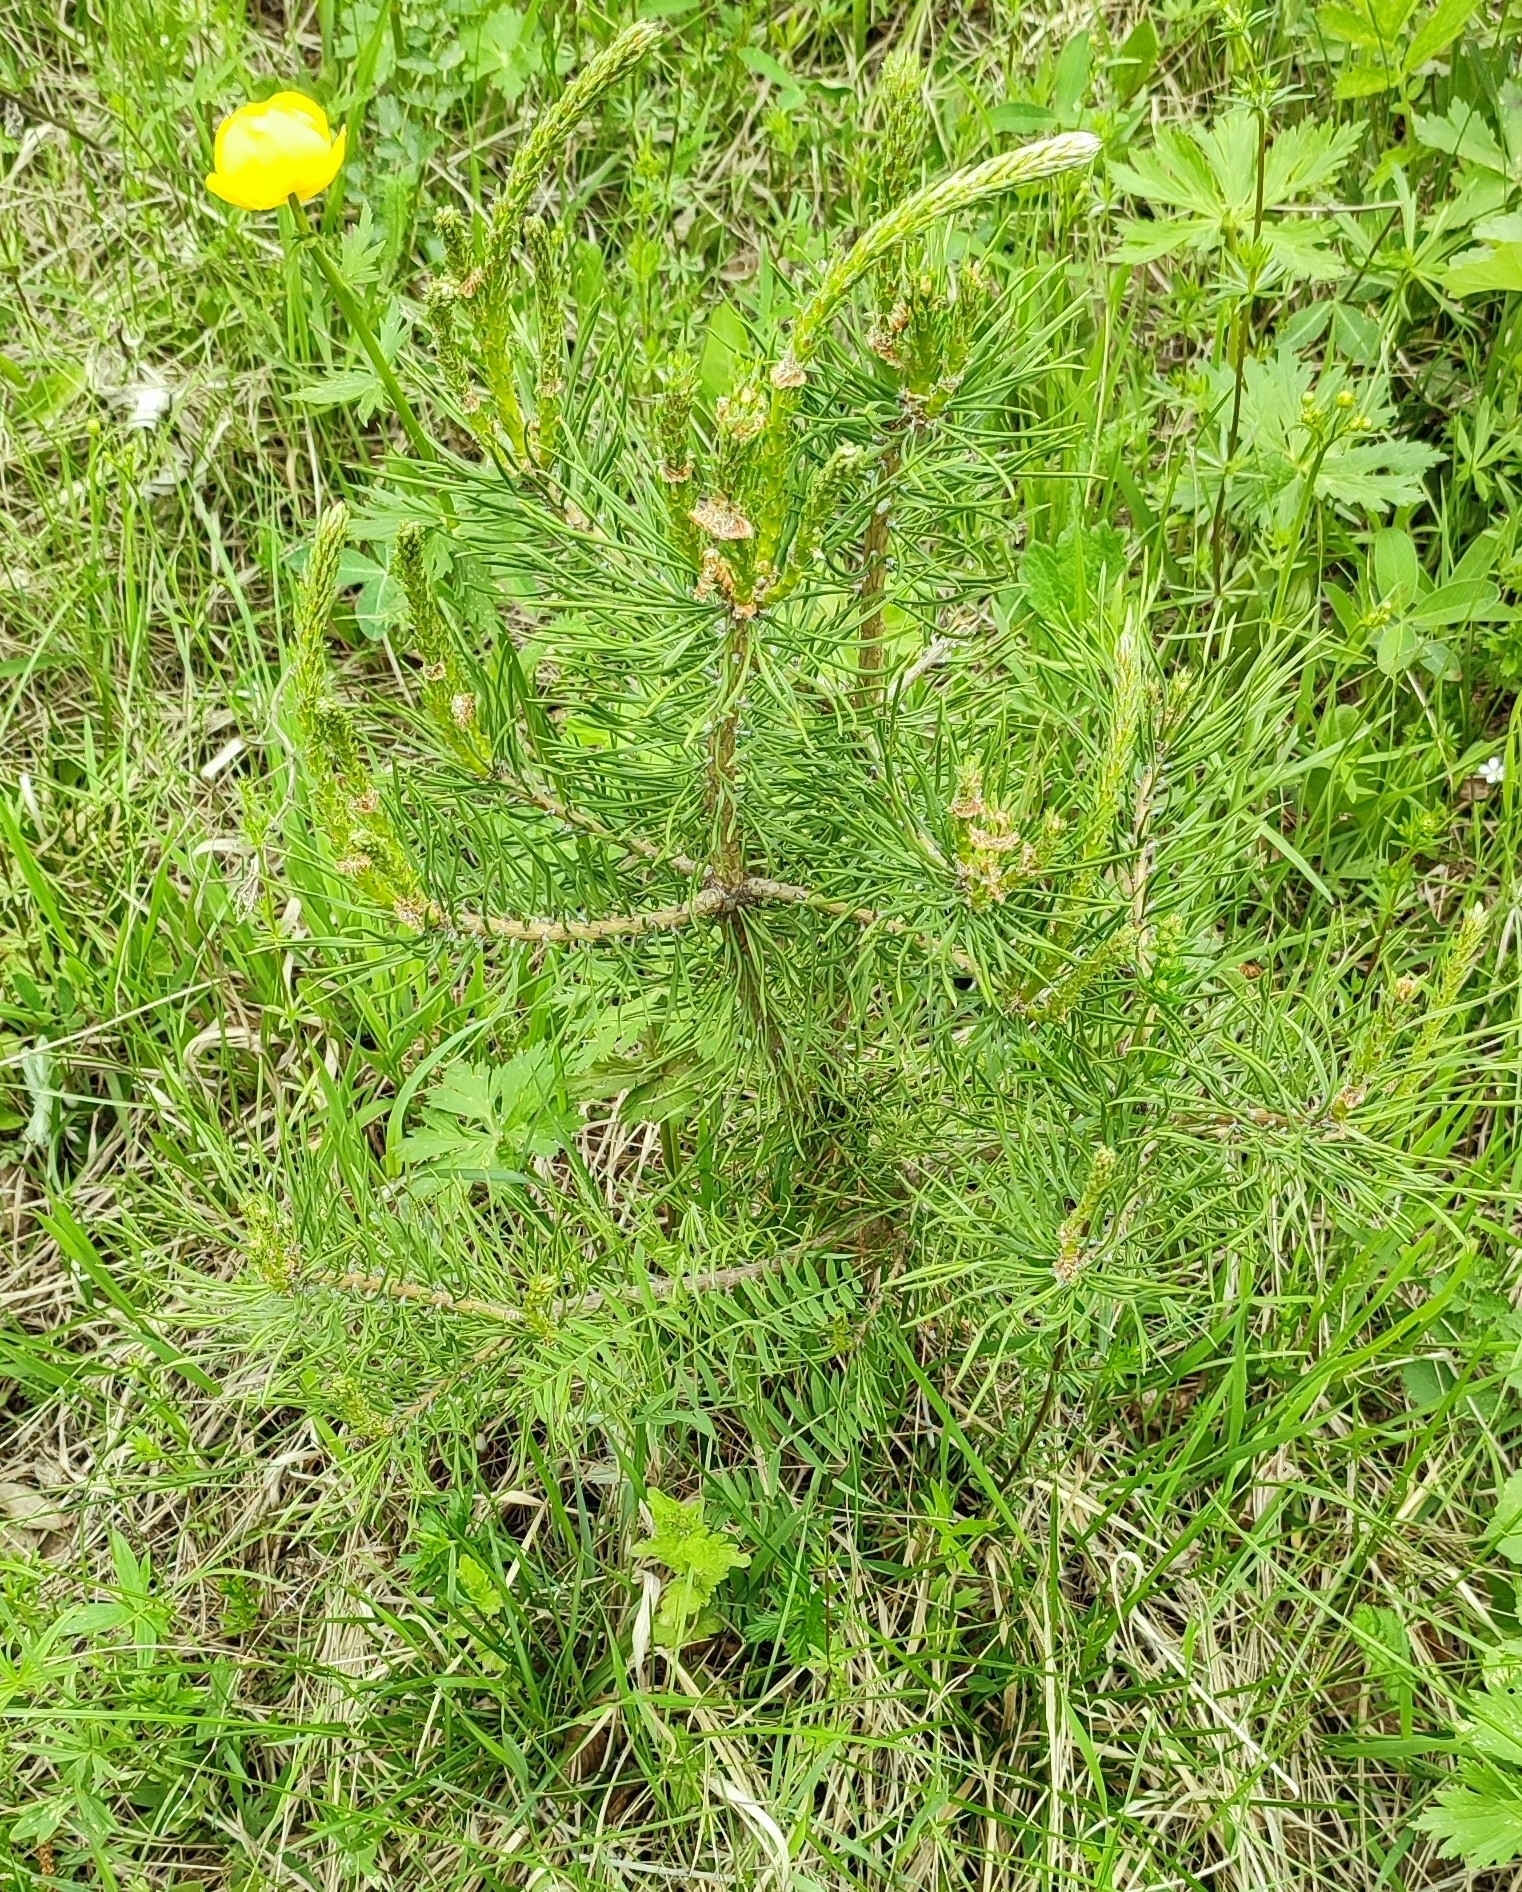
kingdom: Plantae
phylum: Tracheophyta
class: Pinopsida
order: Pinales
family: Pinaceae
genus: Pinus
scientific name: Pinus sylvestris
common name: Scots pine
